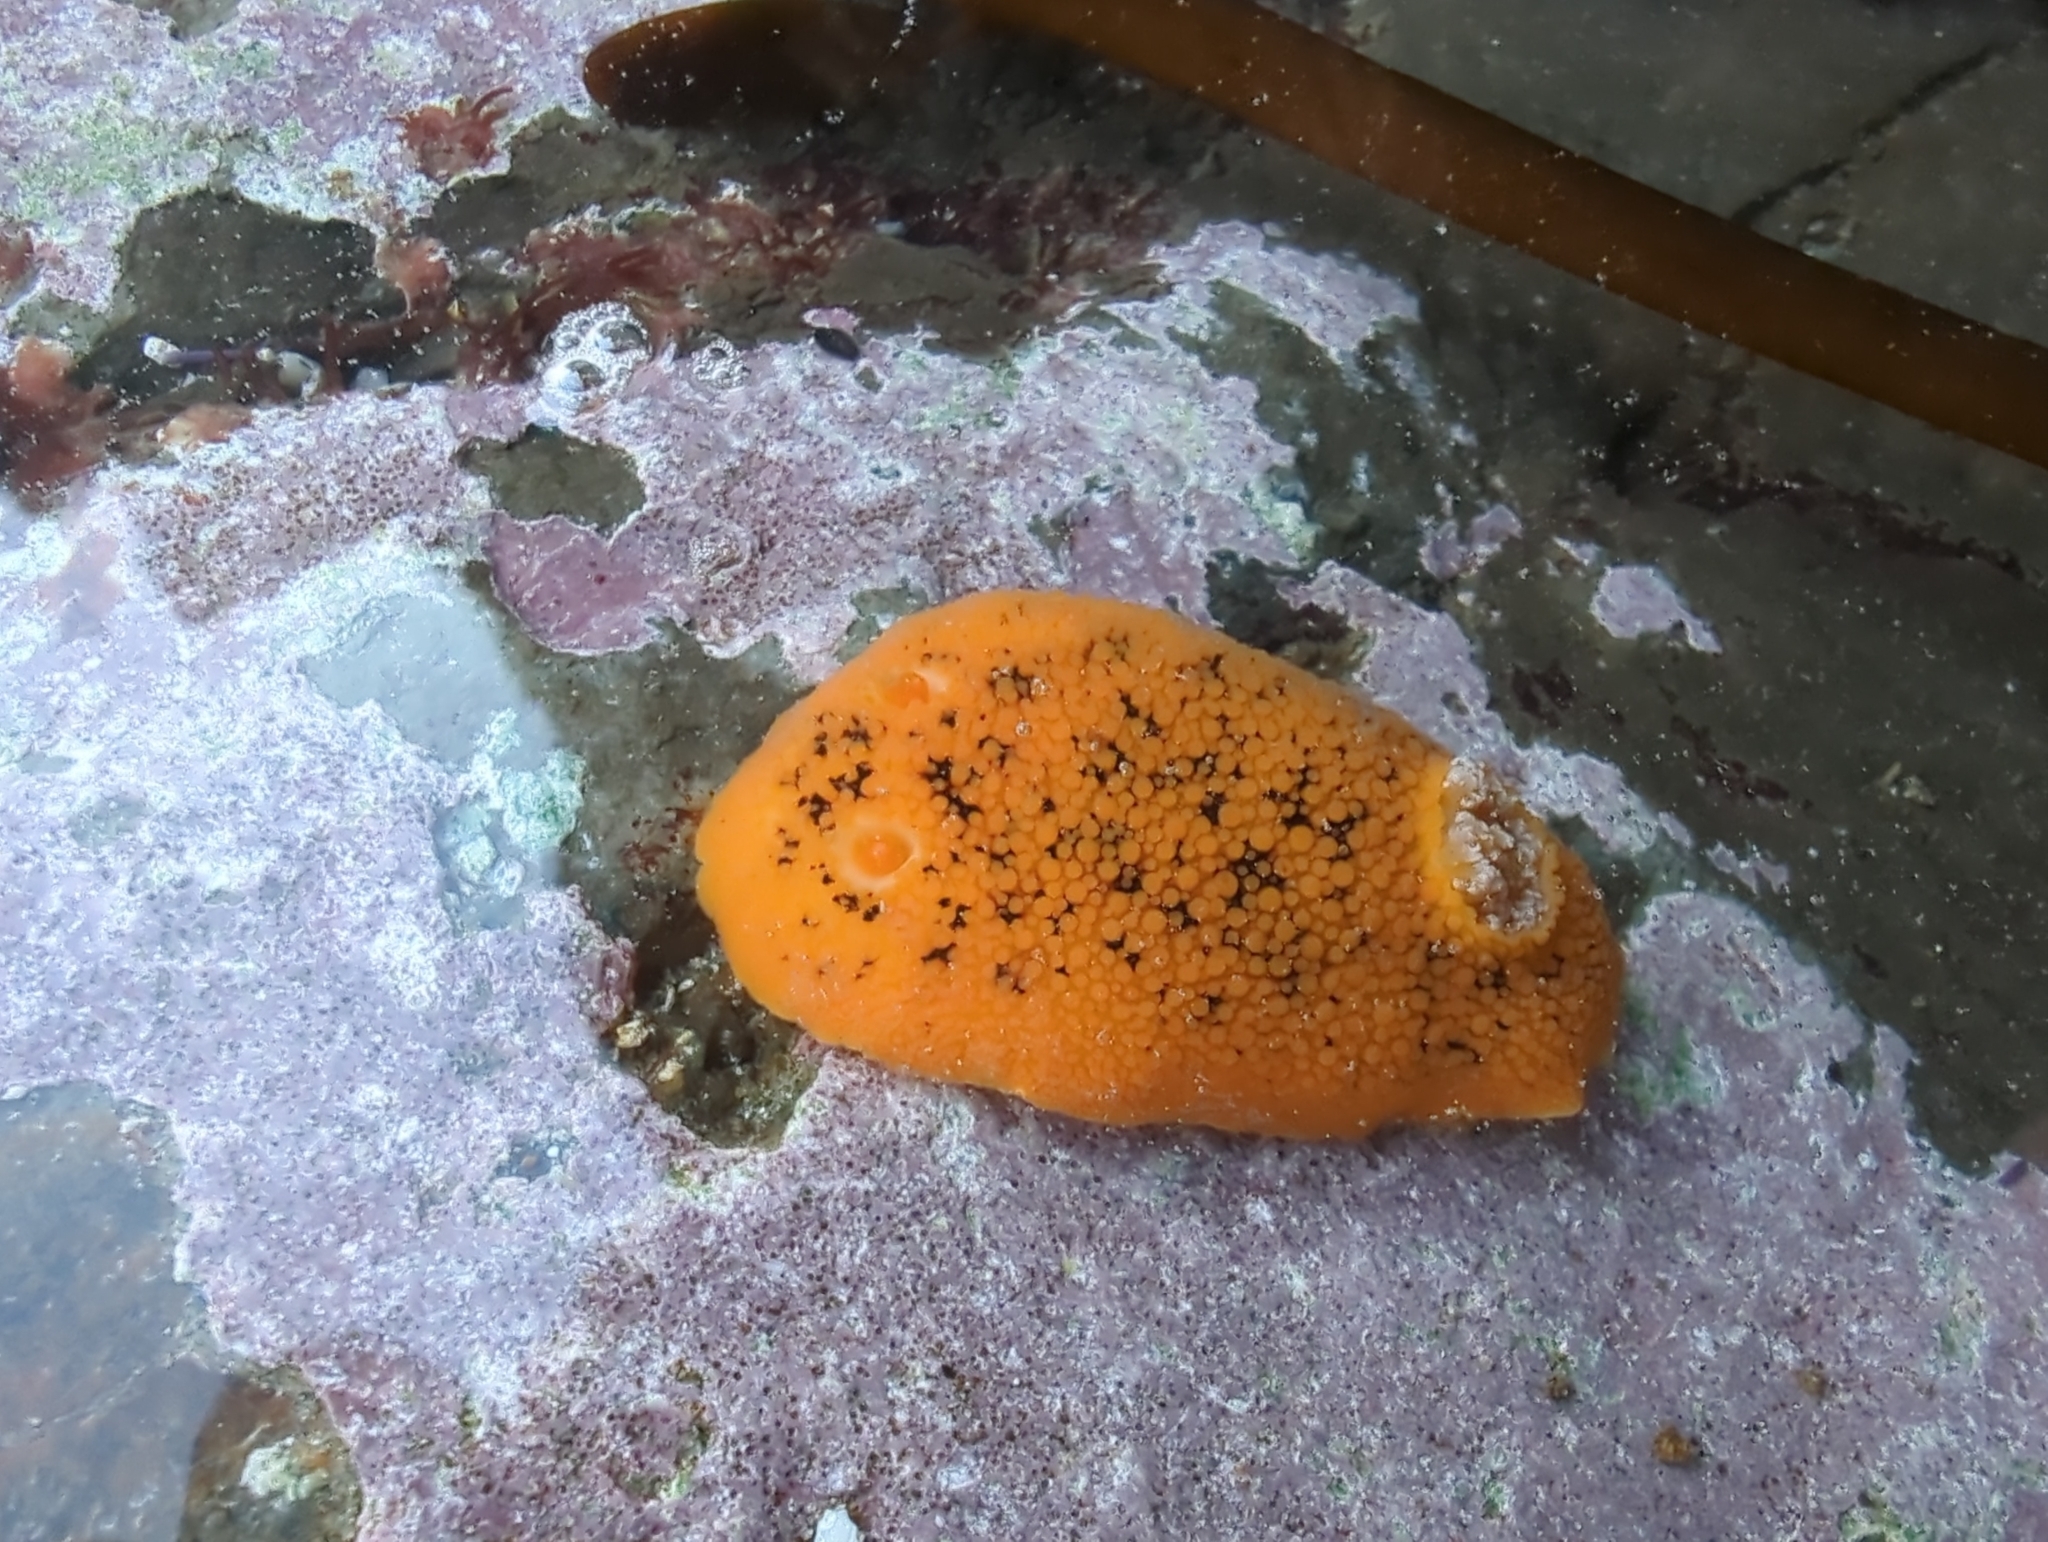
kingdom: Animalia
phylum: Mollusca
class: Gastropoda
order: Nudibranchia
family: Discodorididae
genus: Peltodoris
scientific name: Peltodoris nobilis
